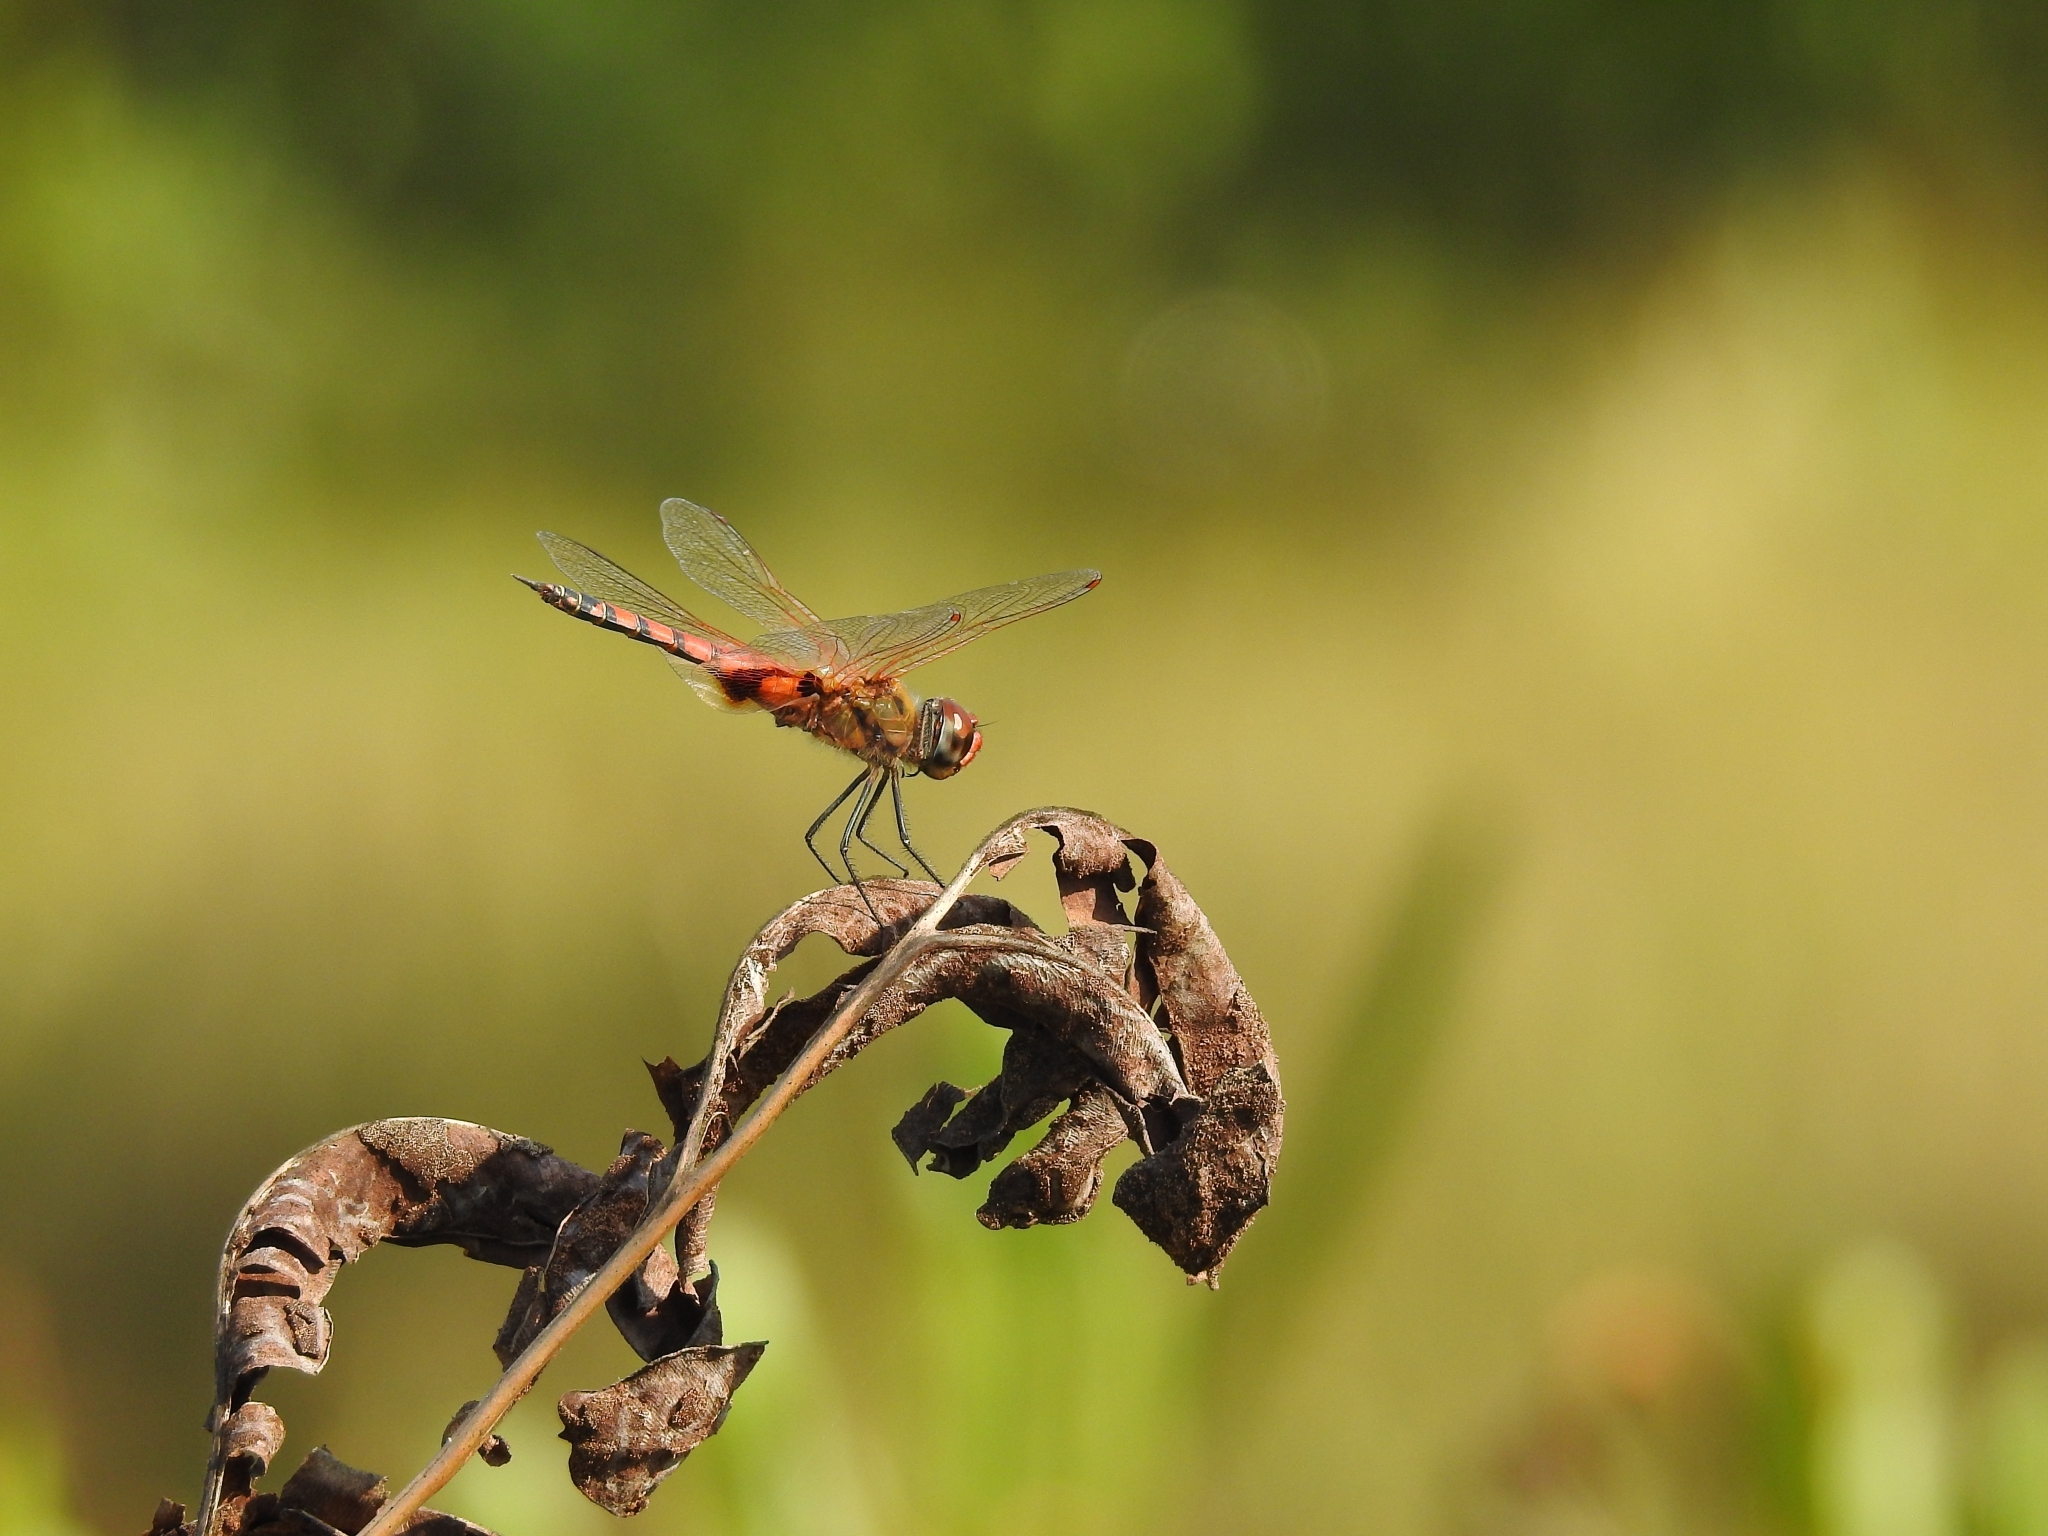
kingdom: Animalia
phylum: Arthropoda
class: Insecta
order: Odonata
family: Libellulidae
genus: Tramea
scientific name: Tramea basilaris
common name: Keyhole glider
